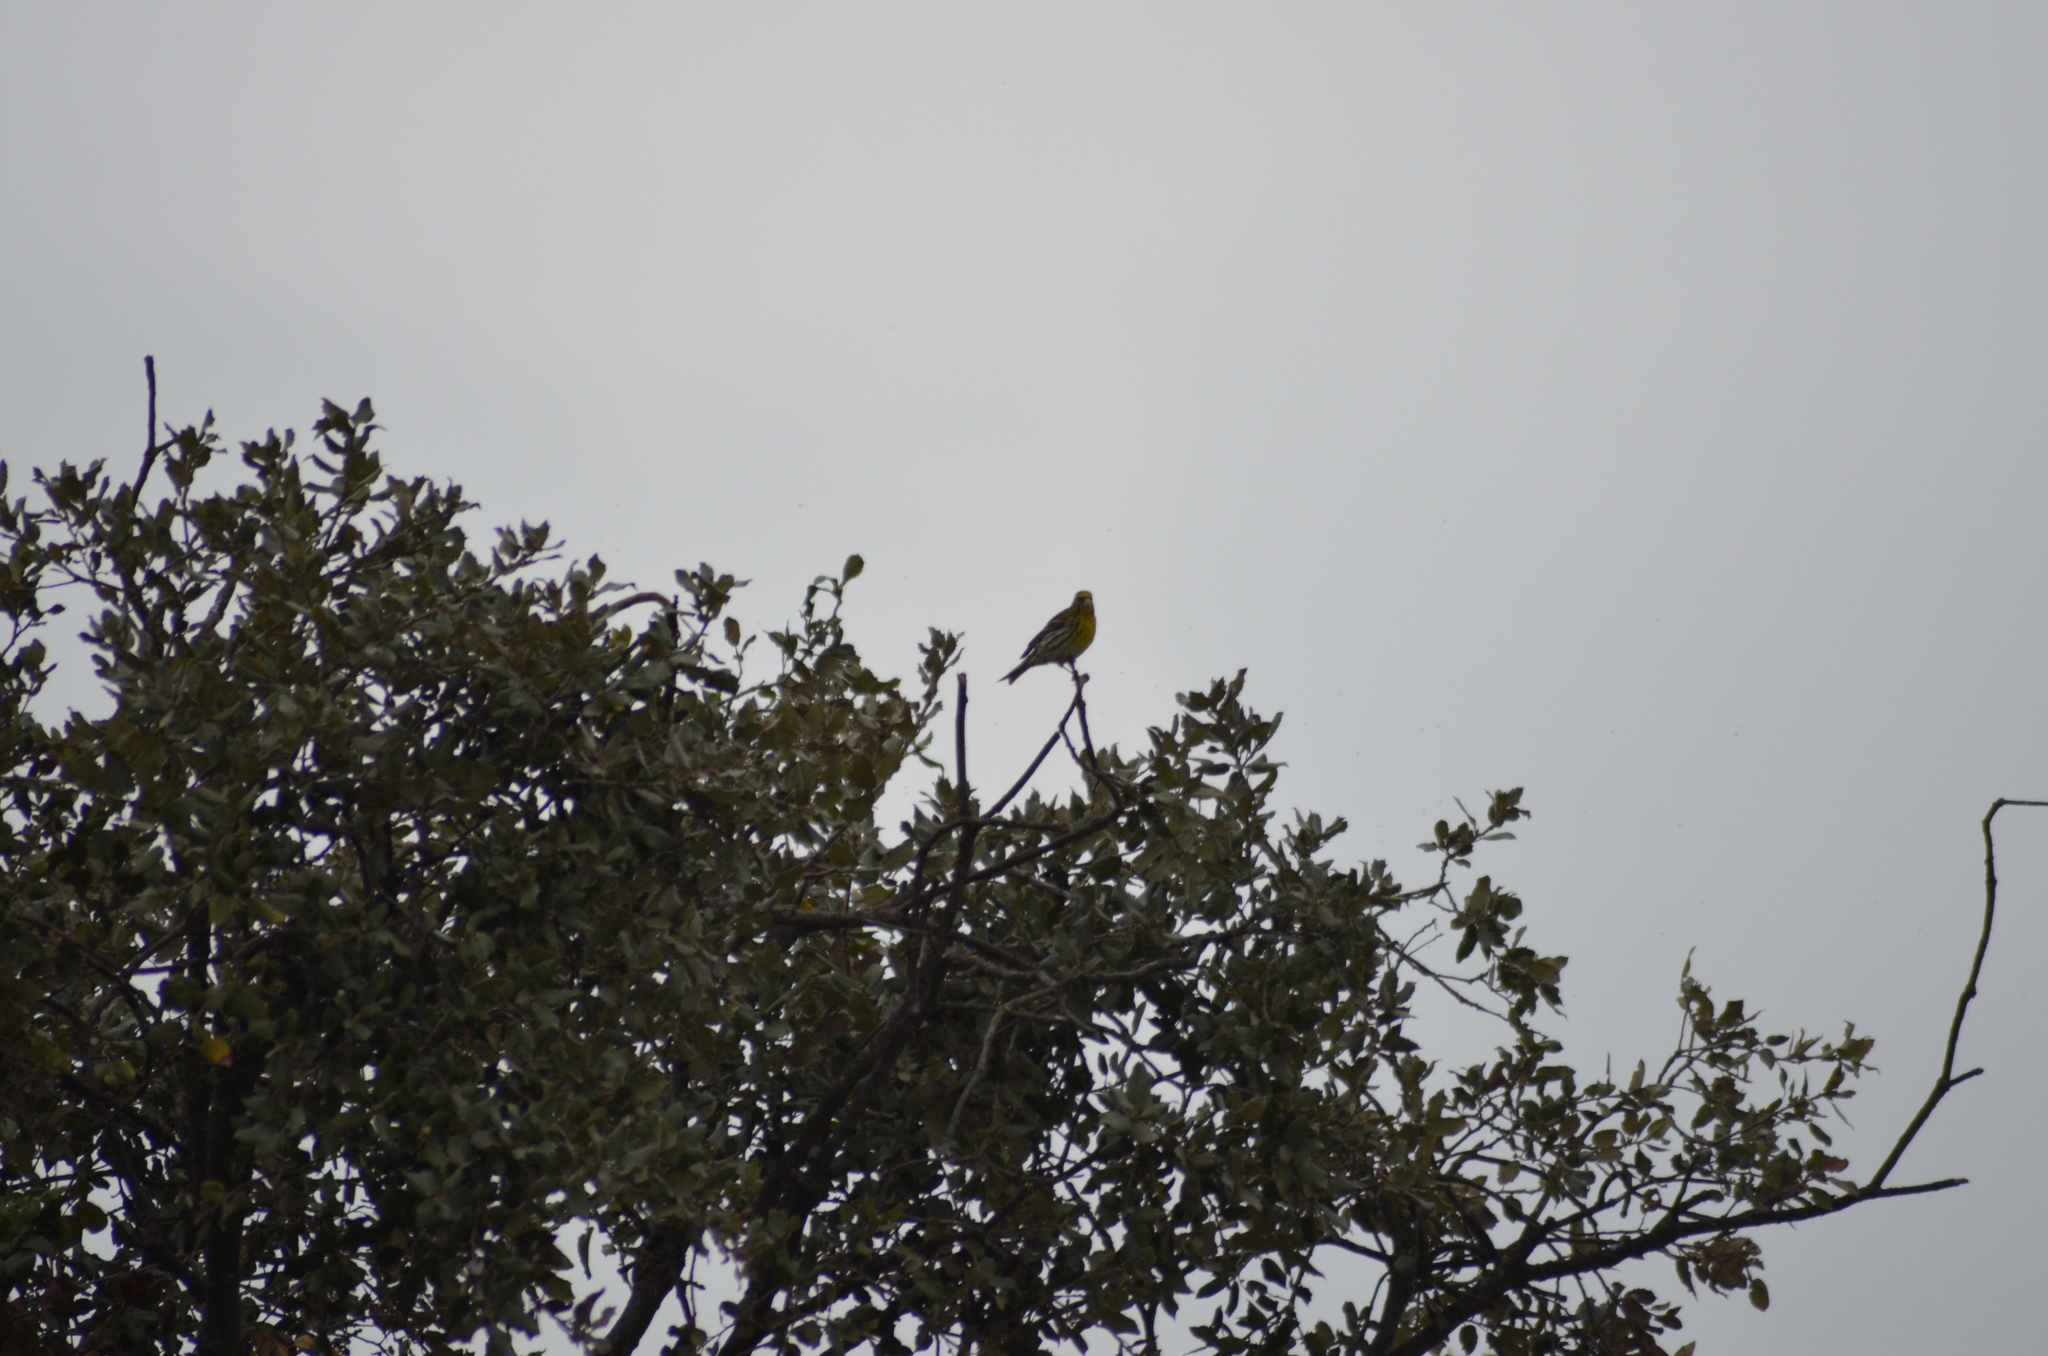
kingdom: Animalia
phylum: Chordata
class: Aves
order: Passeriformes
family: Fringillidae
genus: Serinus
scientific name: Serinus serinus
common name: European serin
